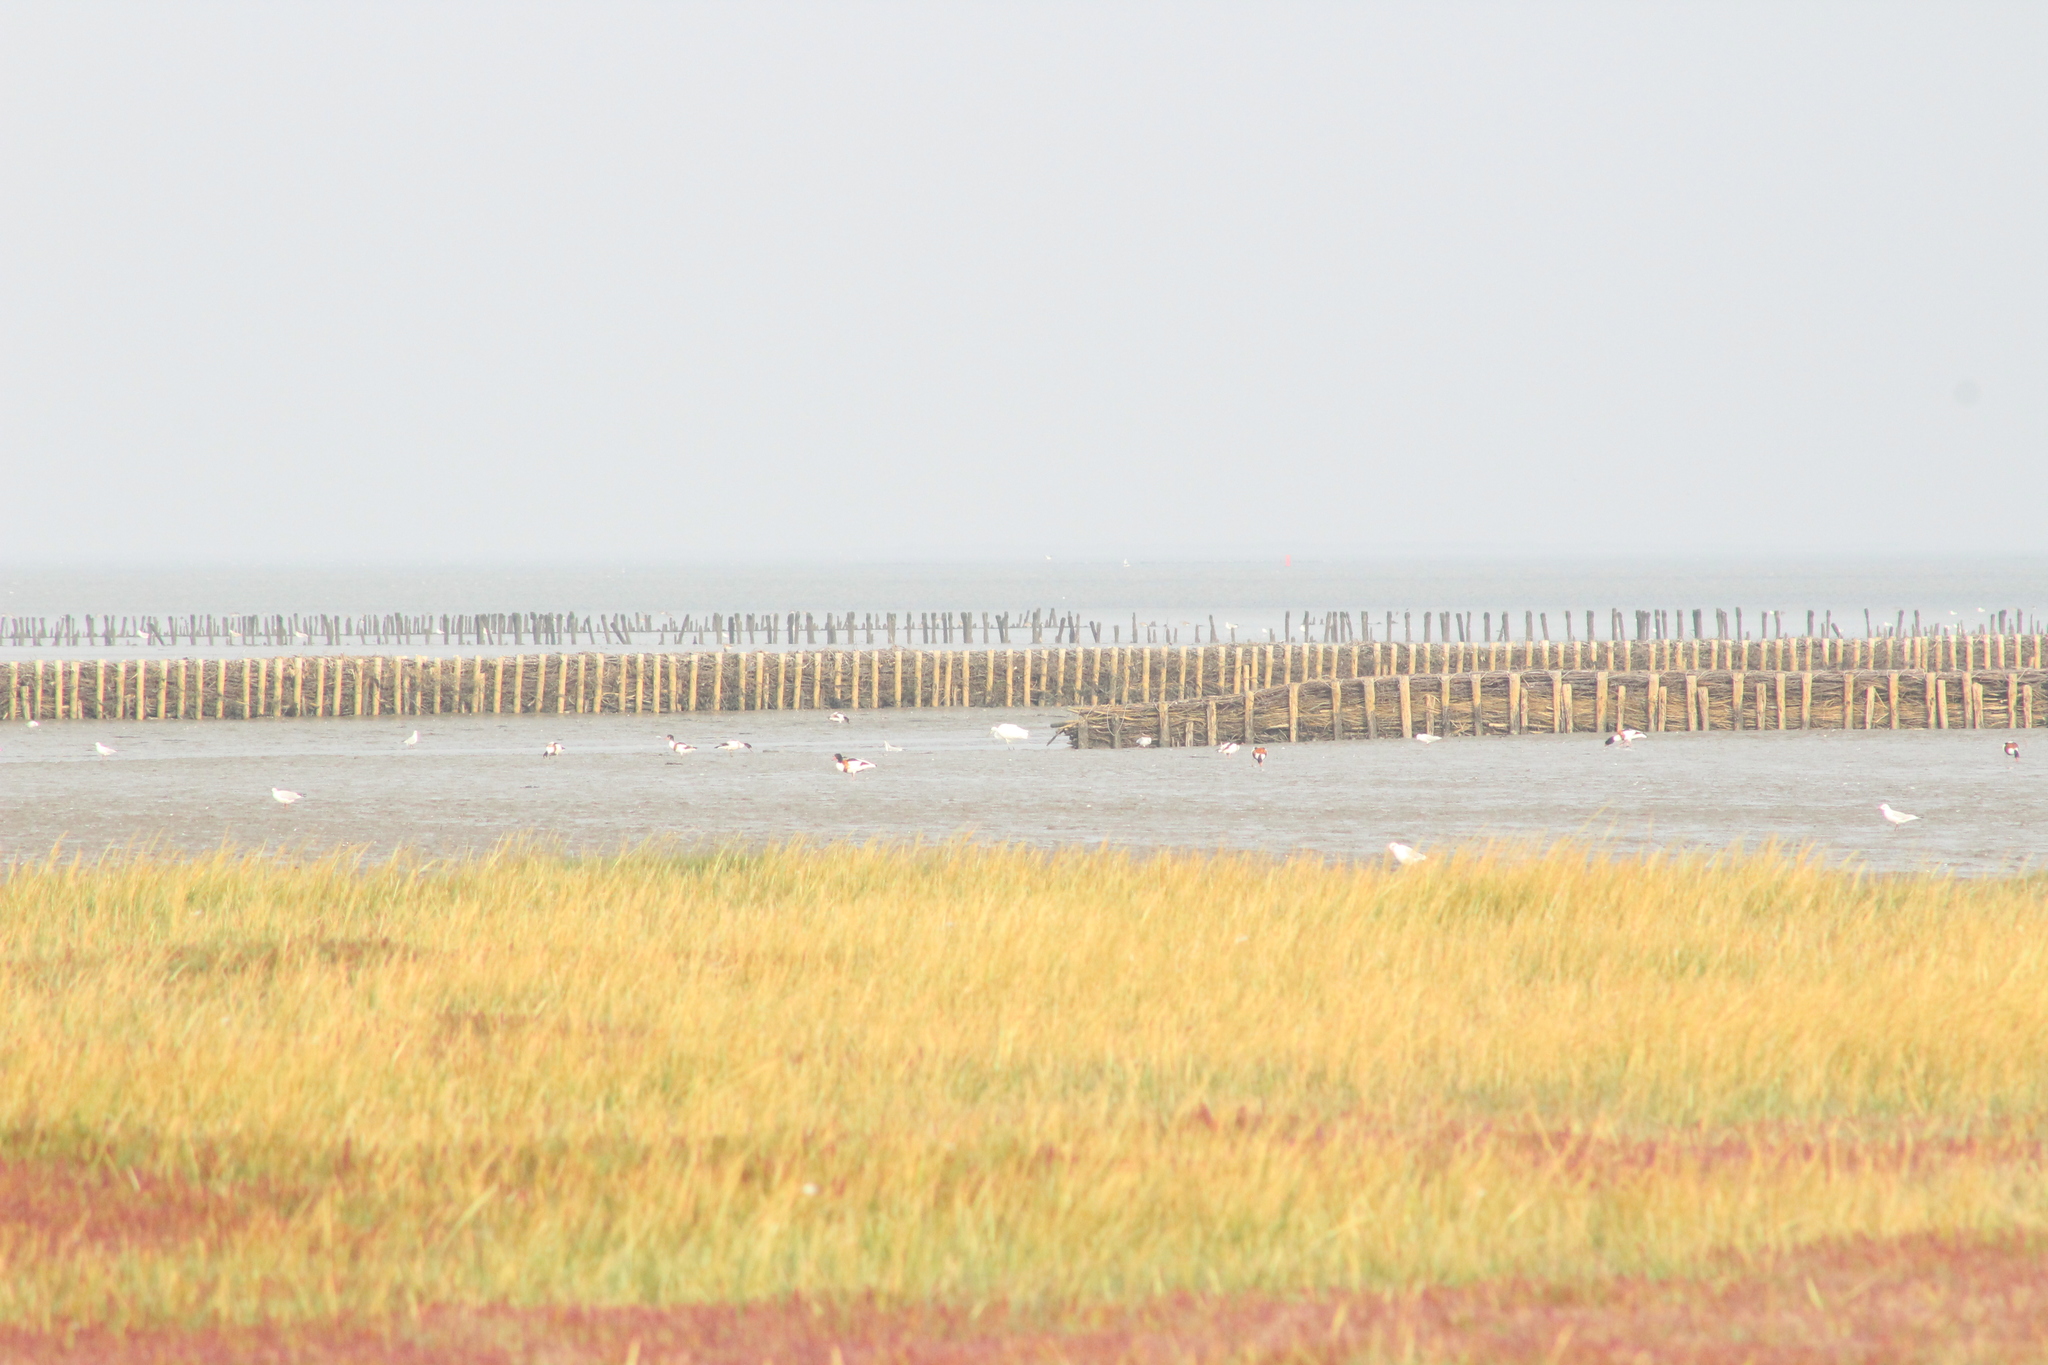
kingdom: Animalia
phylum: Chordata
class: Aves
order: Pelecaniformes
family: Threskiornithidae
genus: Platalea
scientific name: Platalea leucorodia
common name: Eurasian spoonbill
